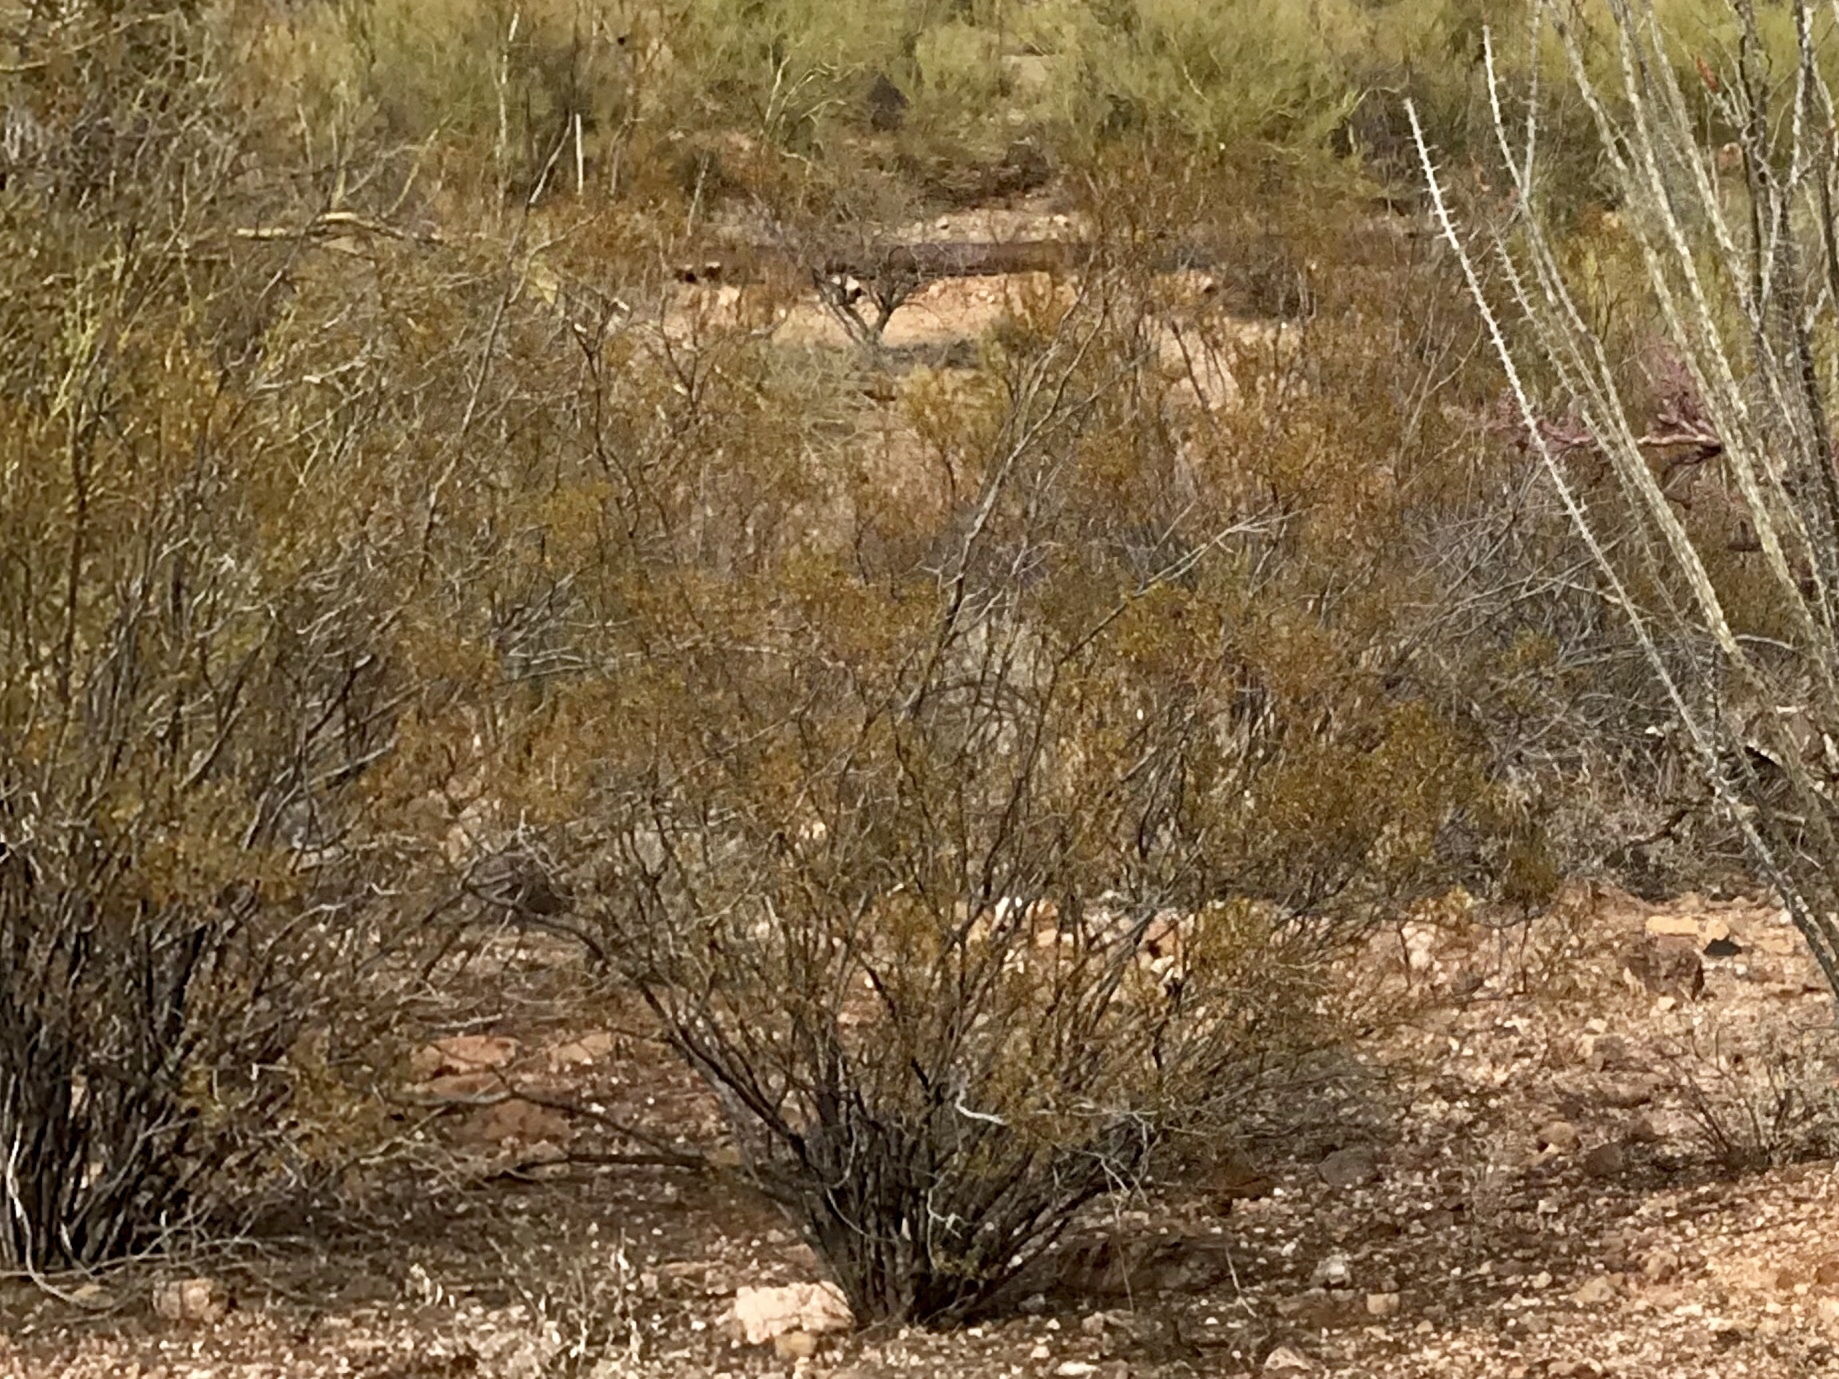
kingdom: Plantae
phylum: Tracheophyta
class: Magnoliopsida
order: Zygophyllales
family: Zygophyllaceae
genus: Larrea
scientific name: Larrea tridentata
